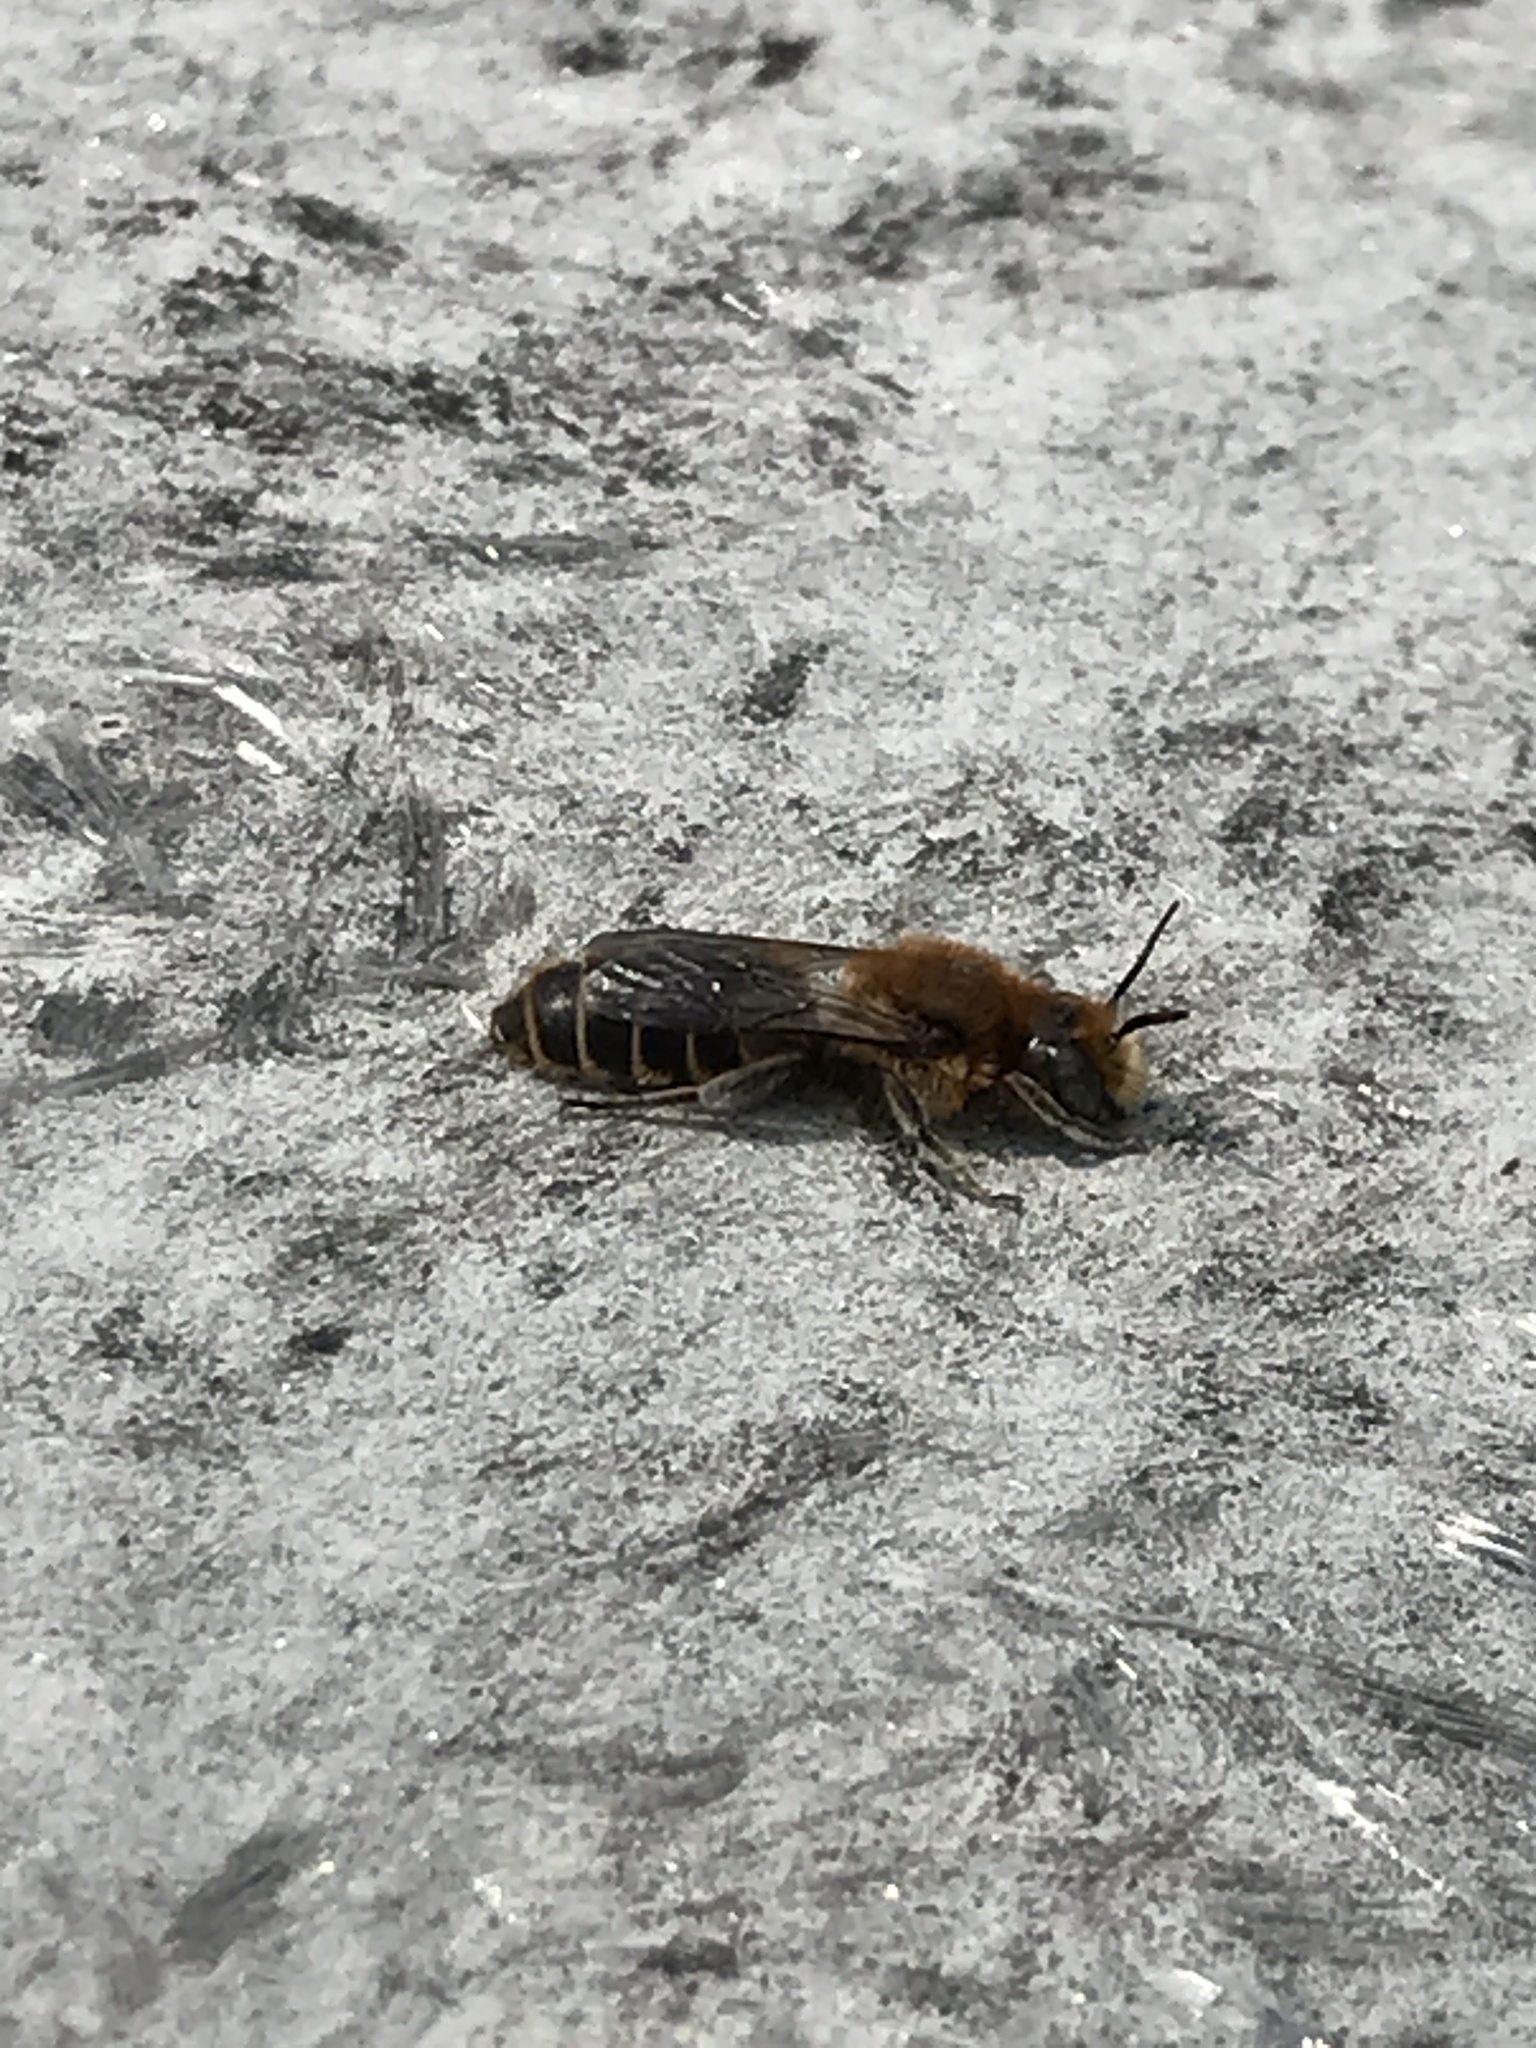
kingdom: Animalia
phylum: Arthropoda
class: Insecta
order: Hymenoptera
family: Megachilidae
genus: Hoplitis
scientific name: Hoplitis
